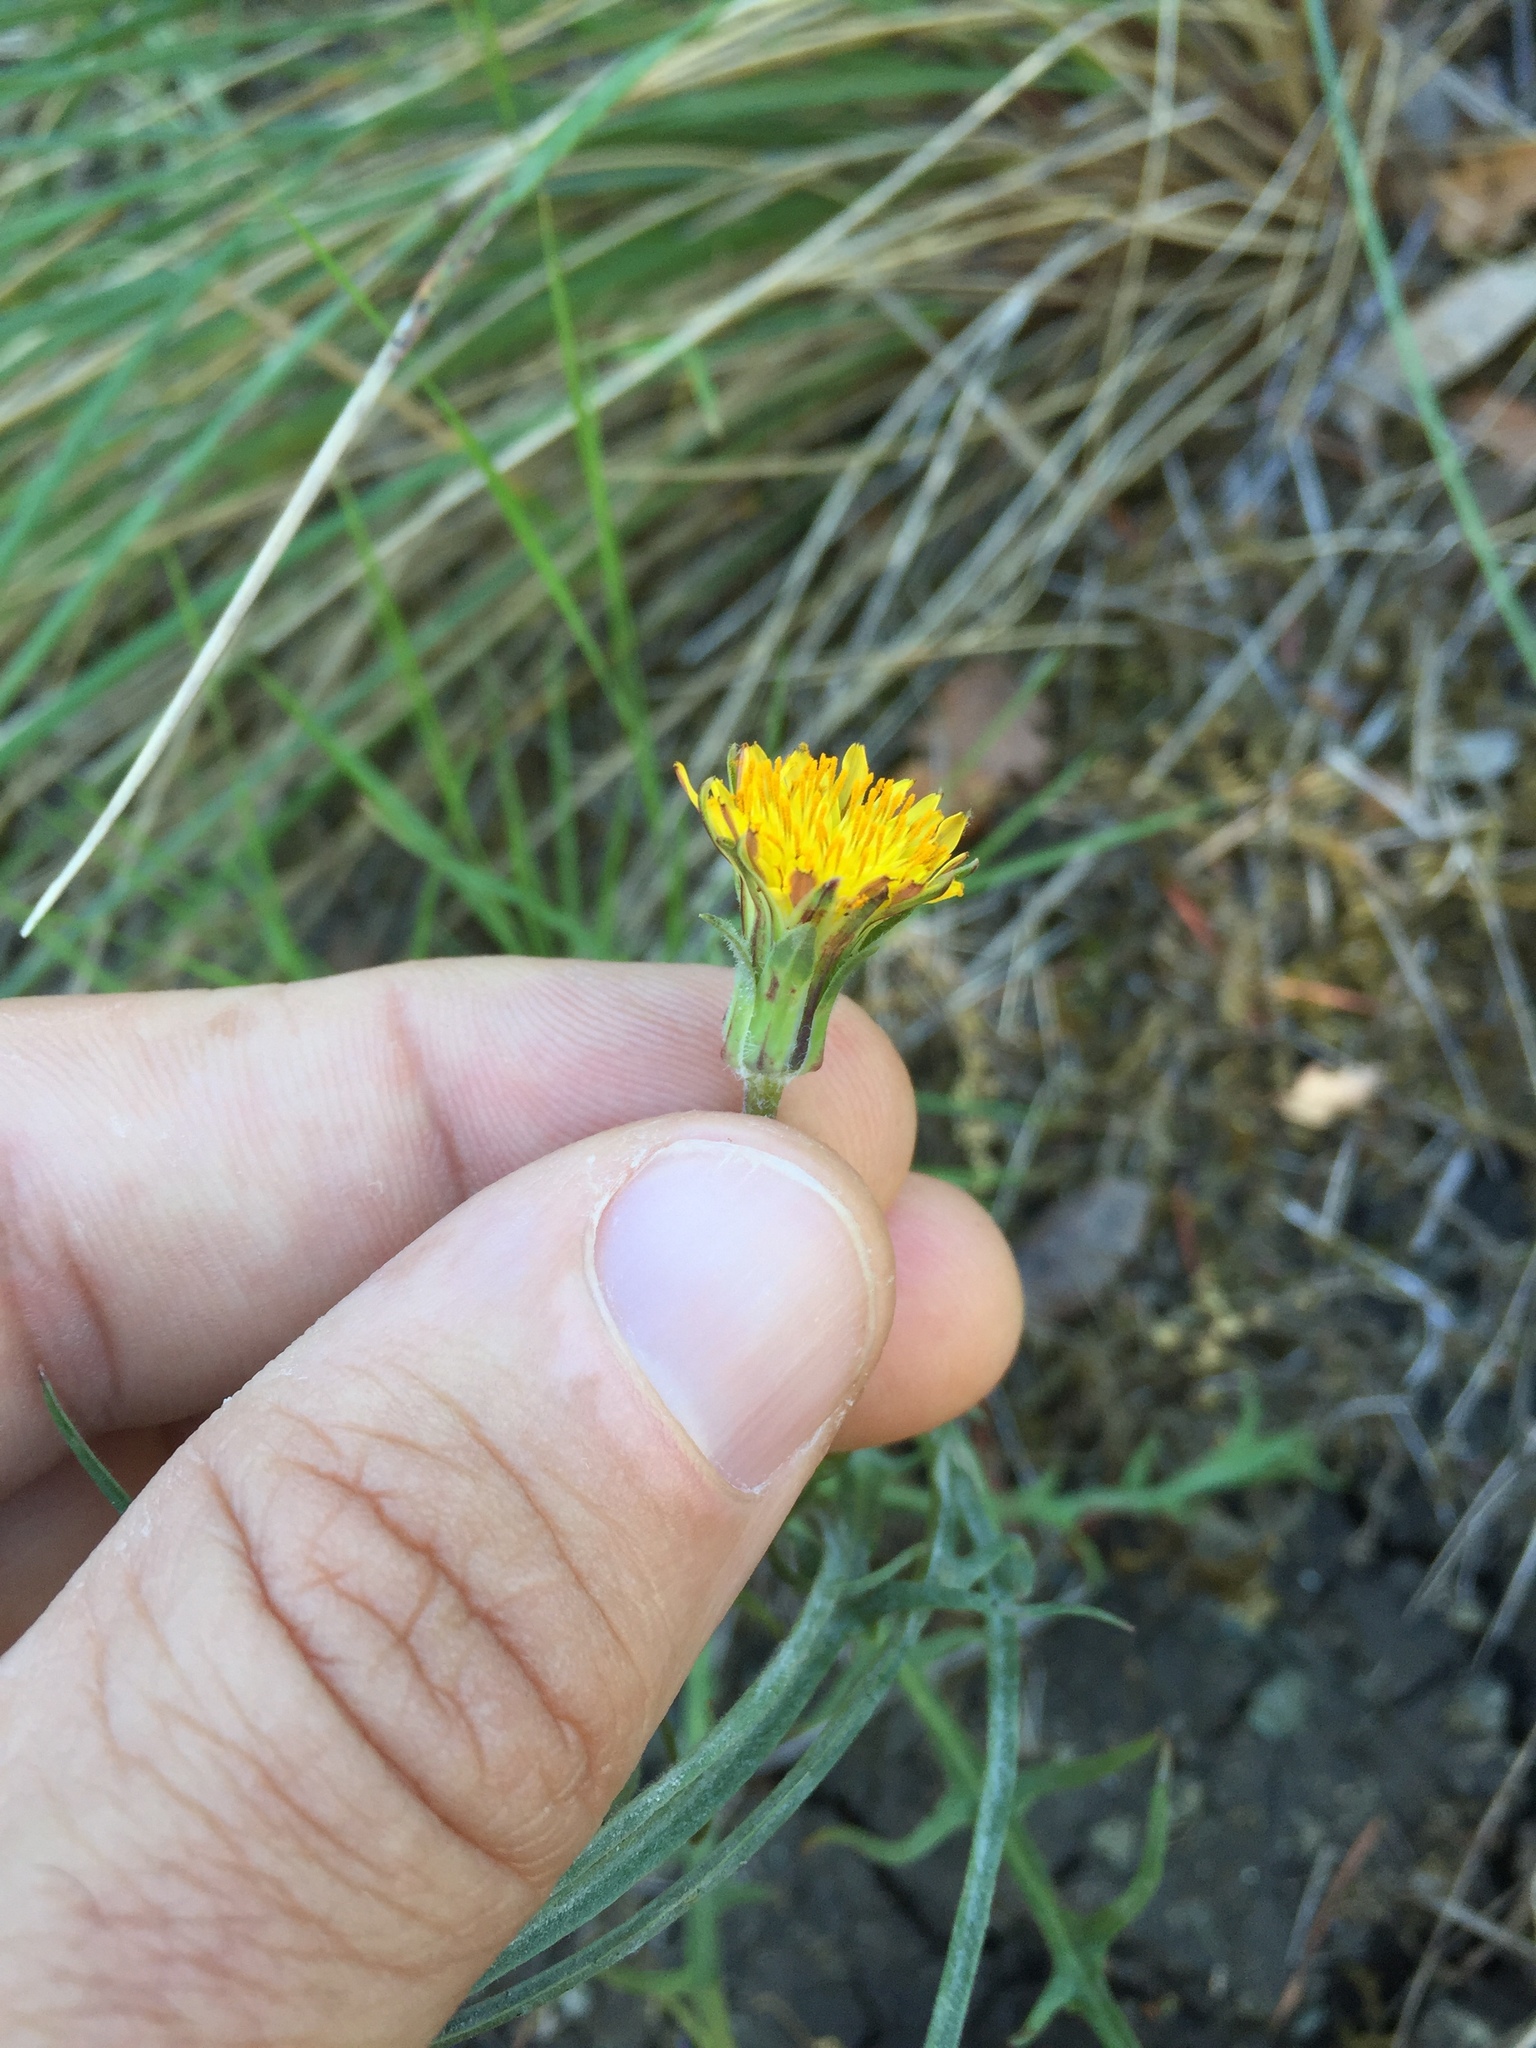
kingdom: Plantae
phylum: Tracheophyta
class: Magnoliopsida
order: Asterales
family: Asteraceae
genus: Agoseris
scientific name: Agoseris grandiflora
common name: Grassland agoseris
